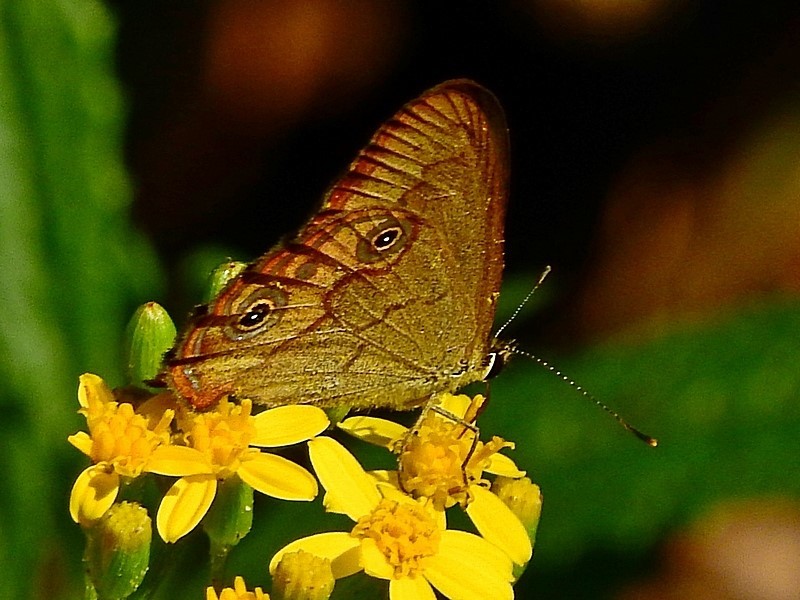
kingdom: Animalia
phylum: Arthropoda
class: Insecta
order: Lepidoptera
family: Nymphalidae
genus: Hypocysta
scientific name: Hypocysta metirius
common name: Brown ringlet
